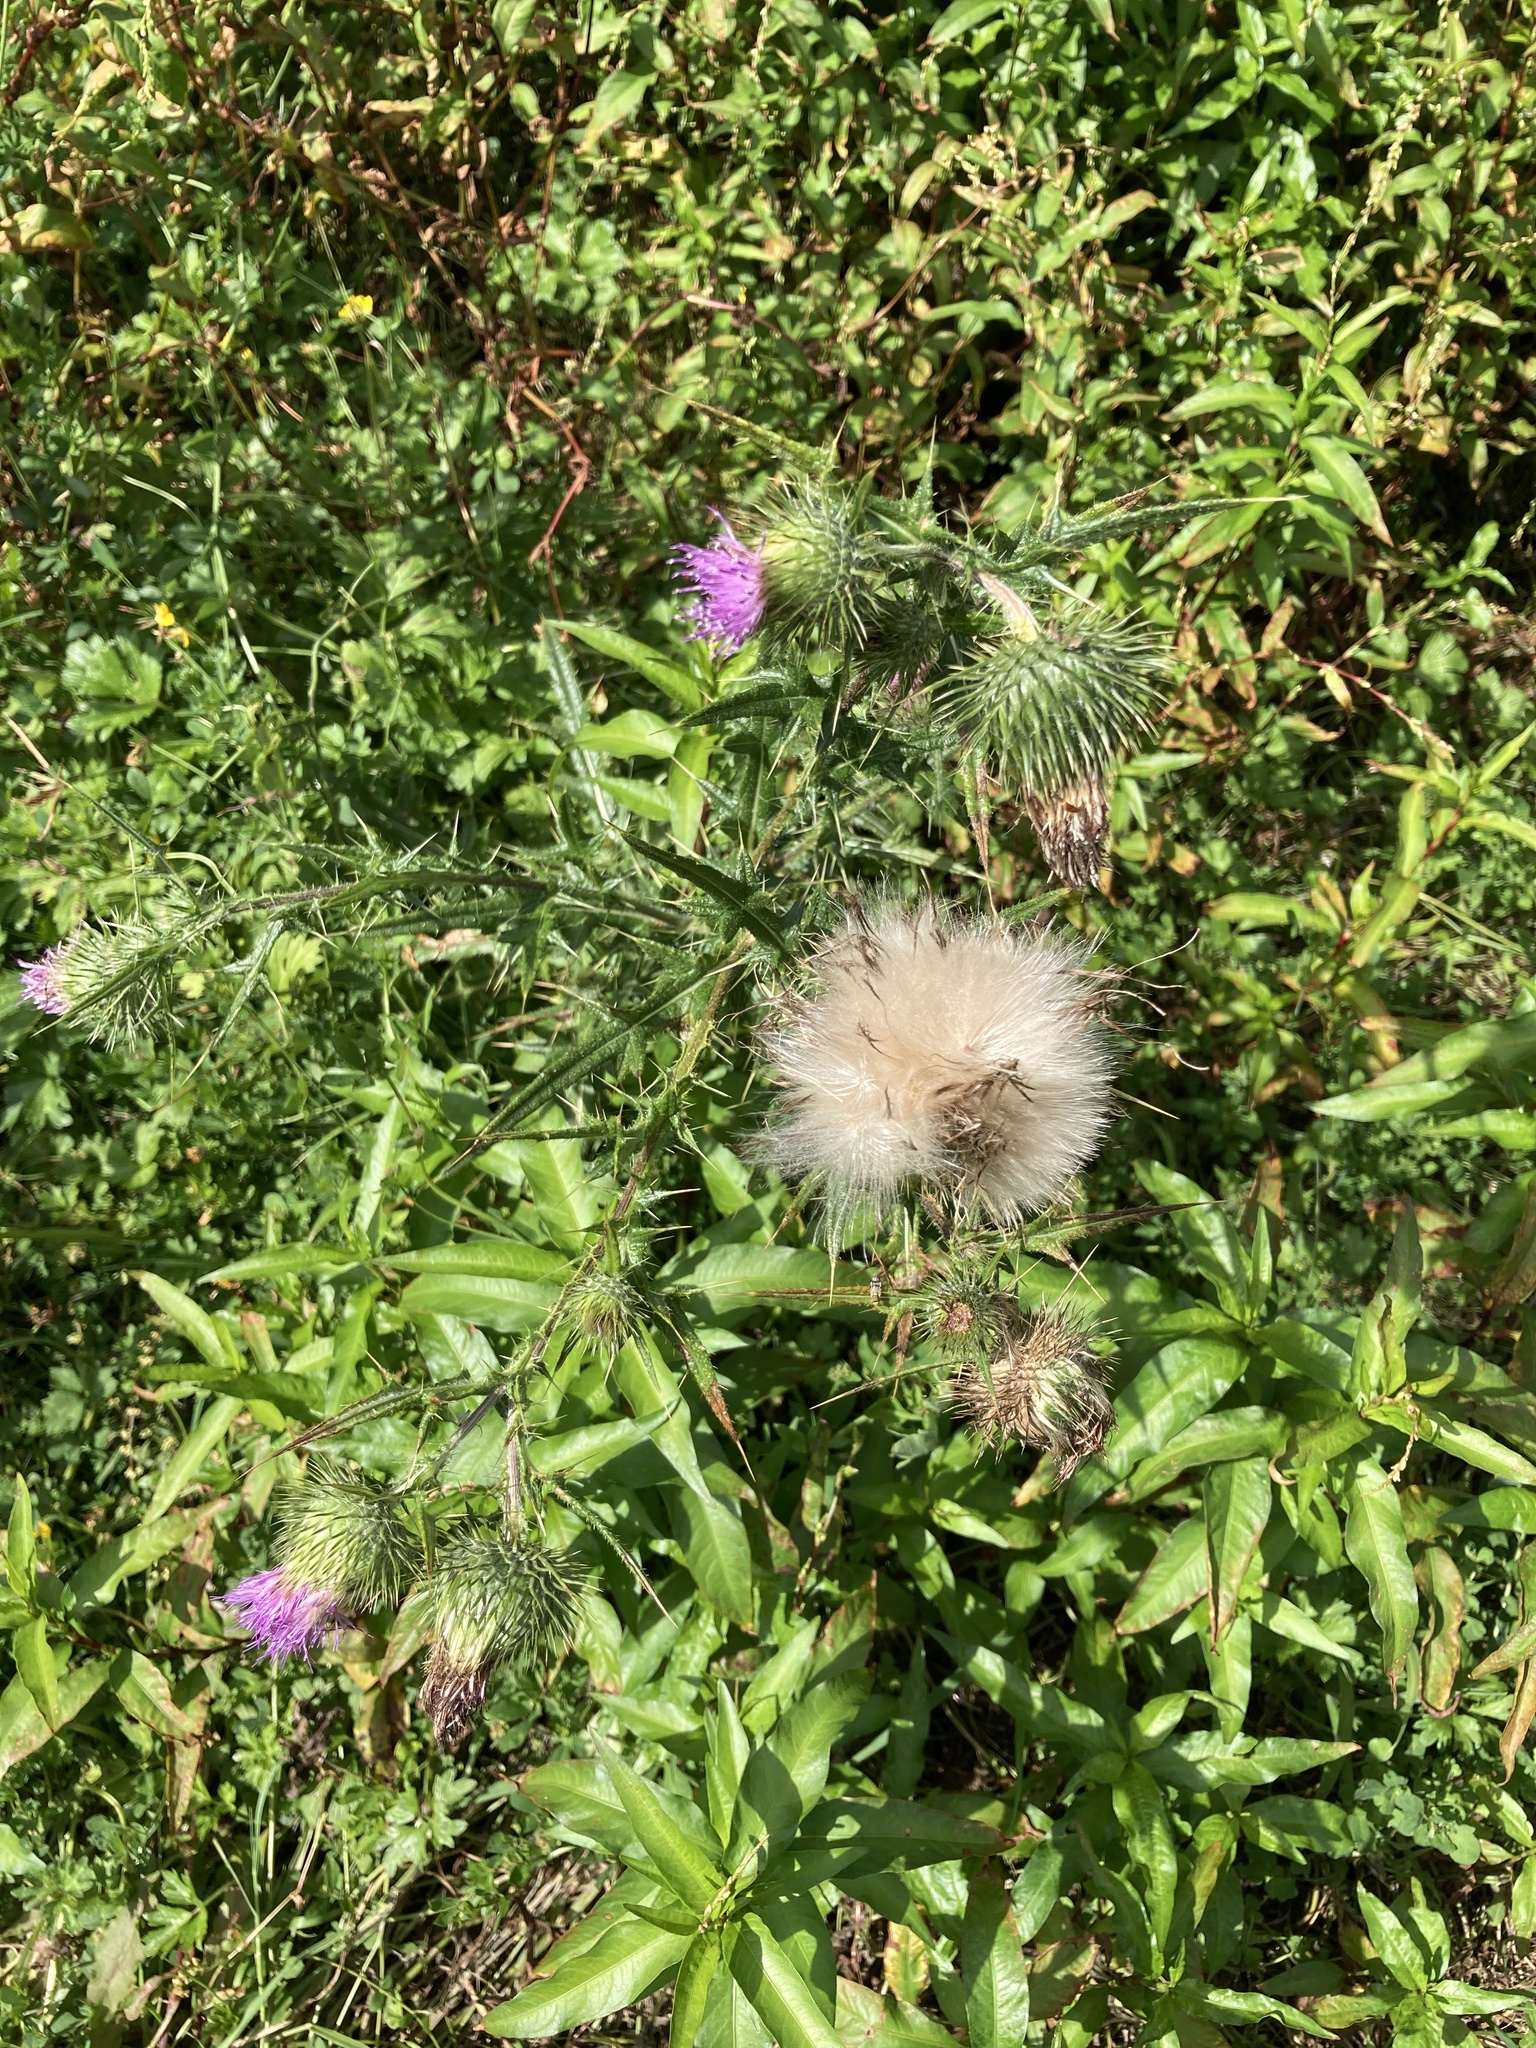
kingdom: Plantae
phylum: Tracheophyta
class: Magnoliopsida
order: Asterales
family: Asteraceae
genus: Cirsium
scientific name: Cirsium vulgare
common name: Bull thistle
